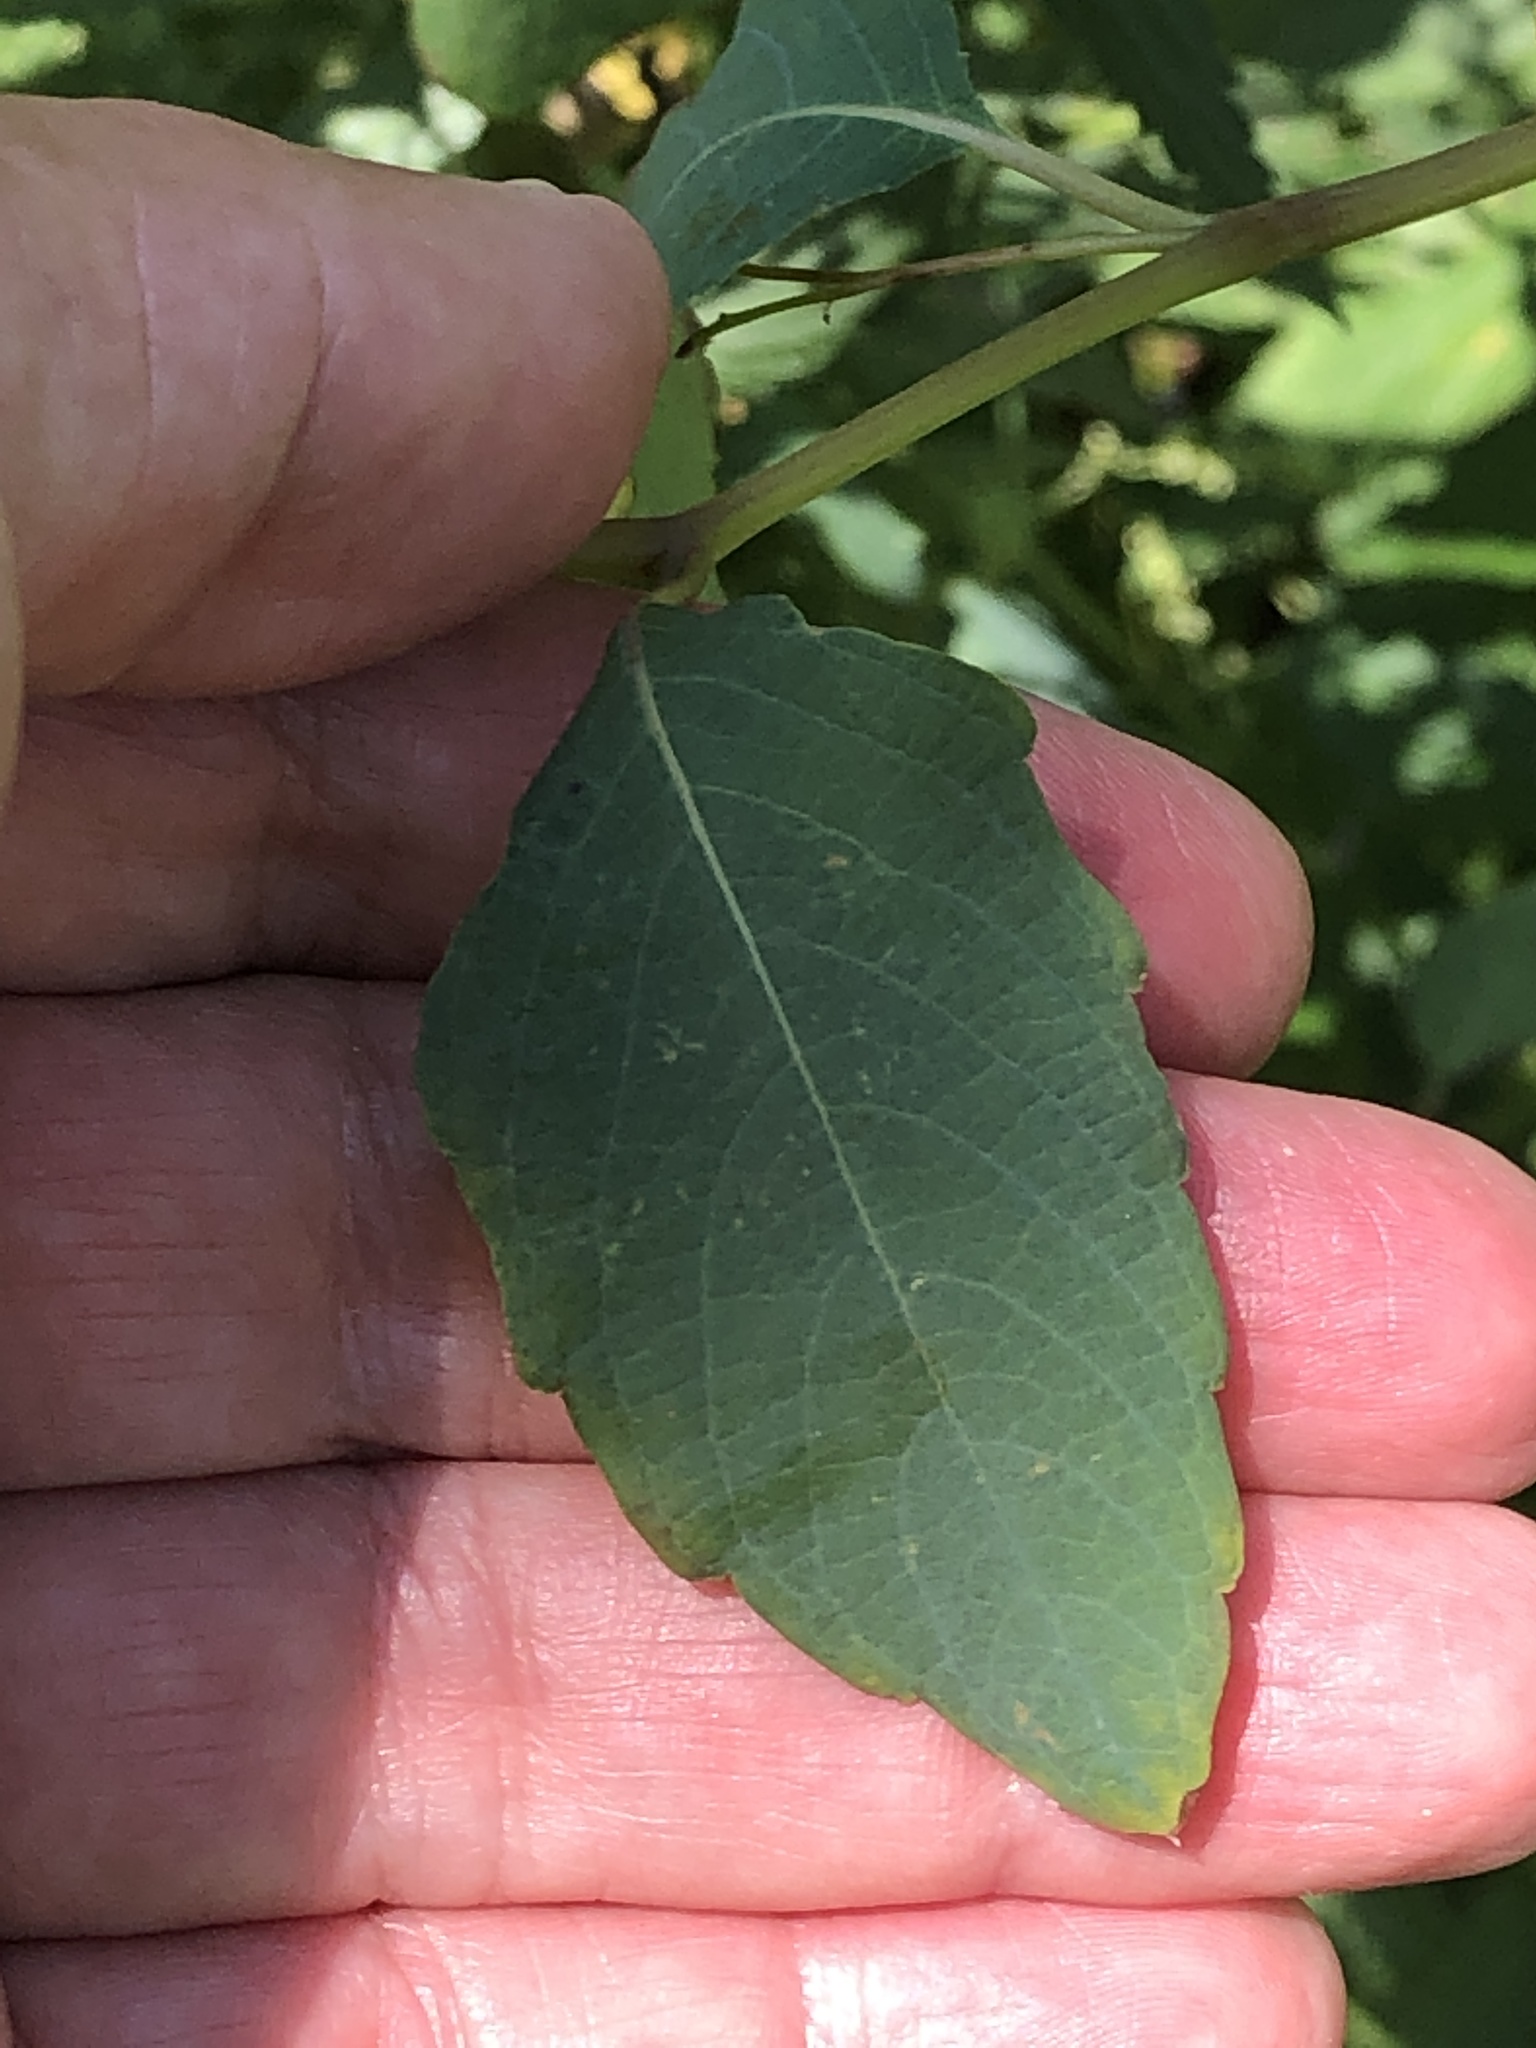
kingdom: Plantae
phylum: Tracheophyta
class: Magnoliopsida
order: Ericales
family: Balsaminaceae
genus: Impatiens
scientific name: Impatiens capensis
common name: Orange balsam
